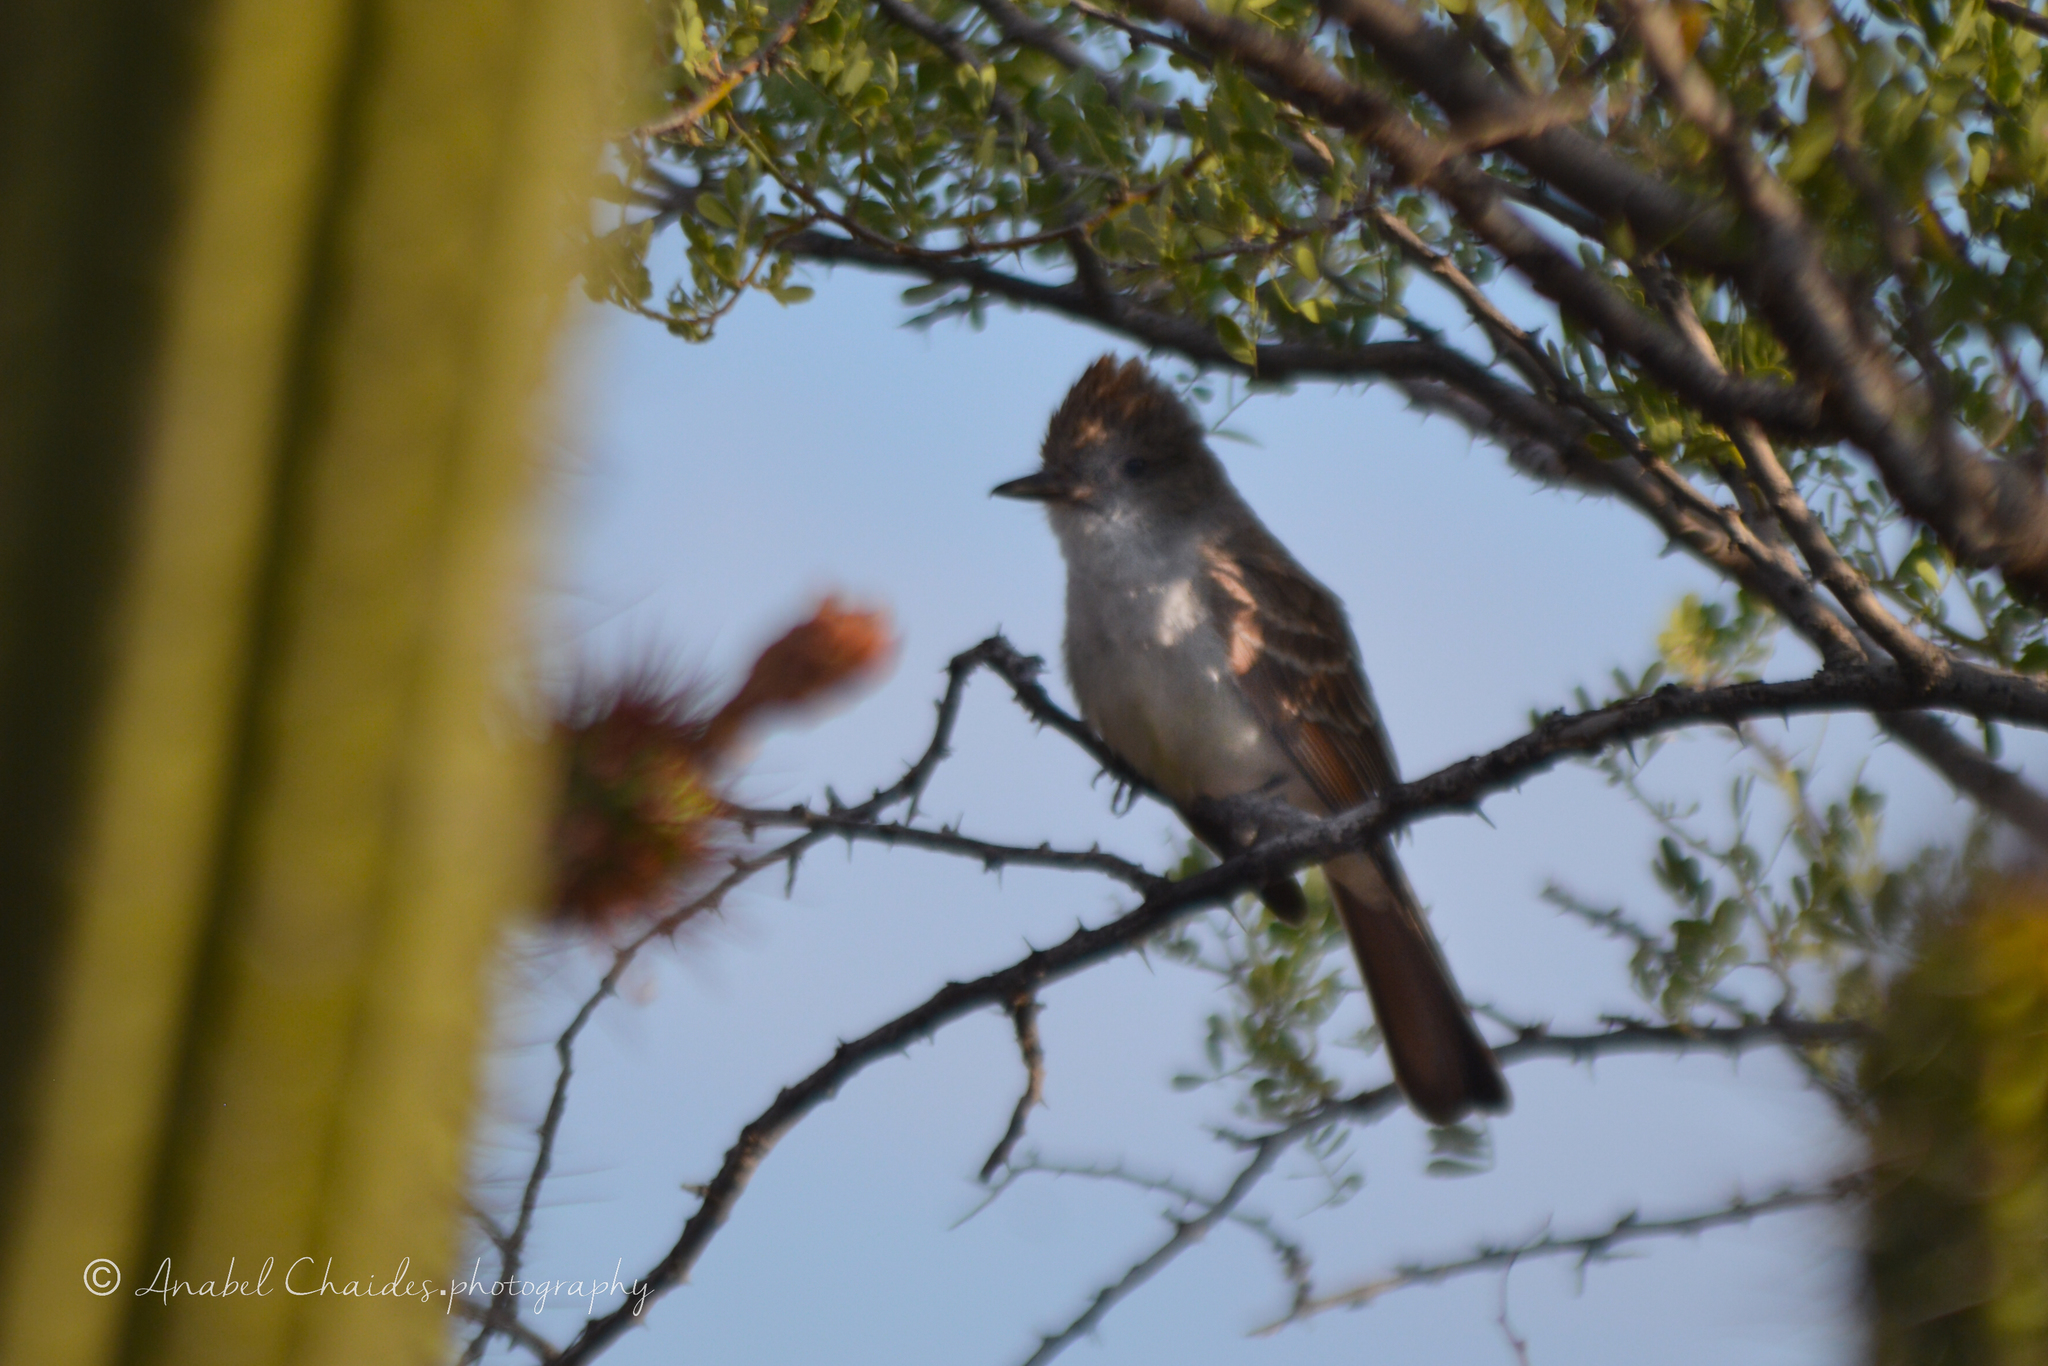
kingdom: Animalia
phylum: Chordata
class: Aves
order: Passeriformes
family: Tyrannidae
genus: Myiarchus
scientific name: Myiarchus cinerascens
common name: Ash-throated flycatcher
